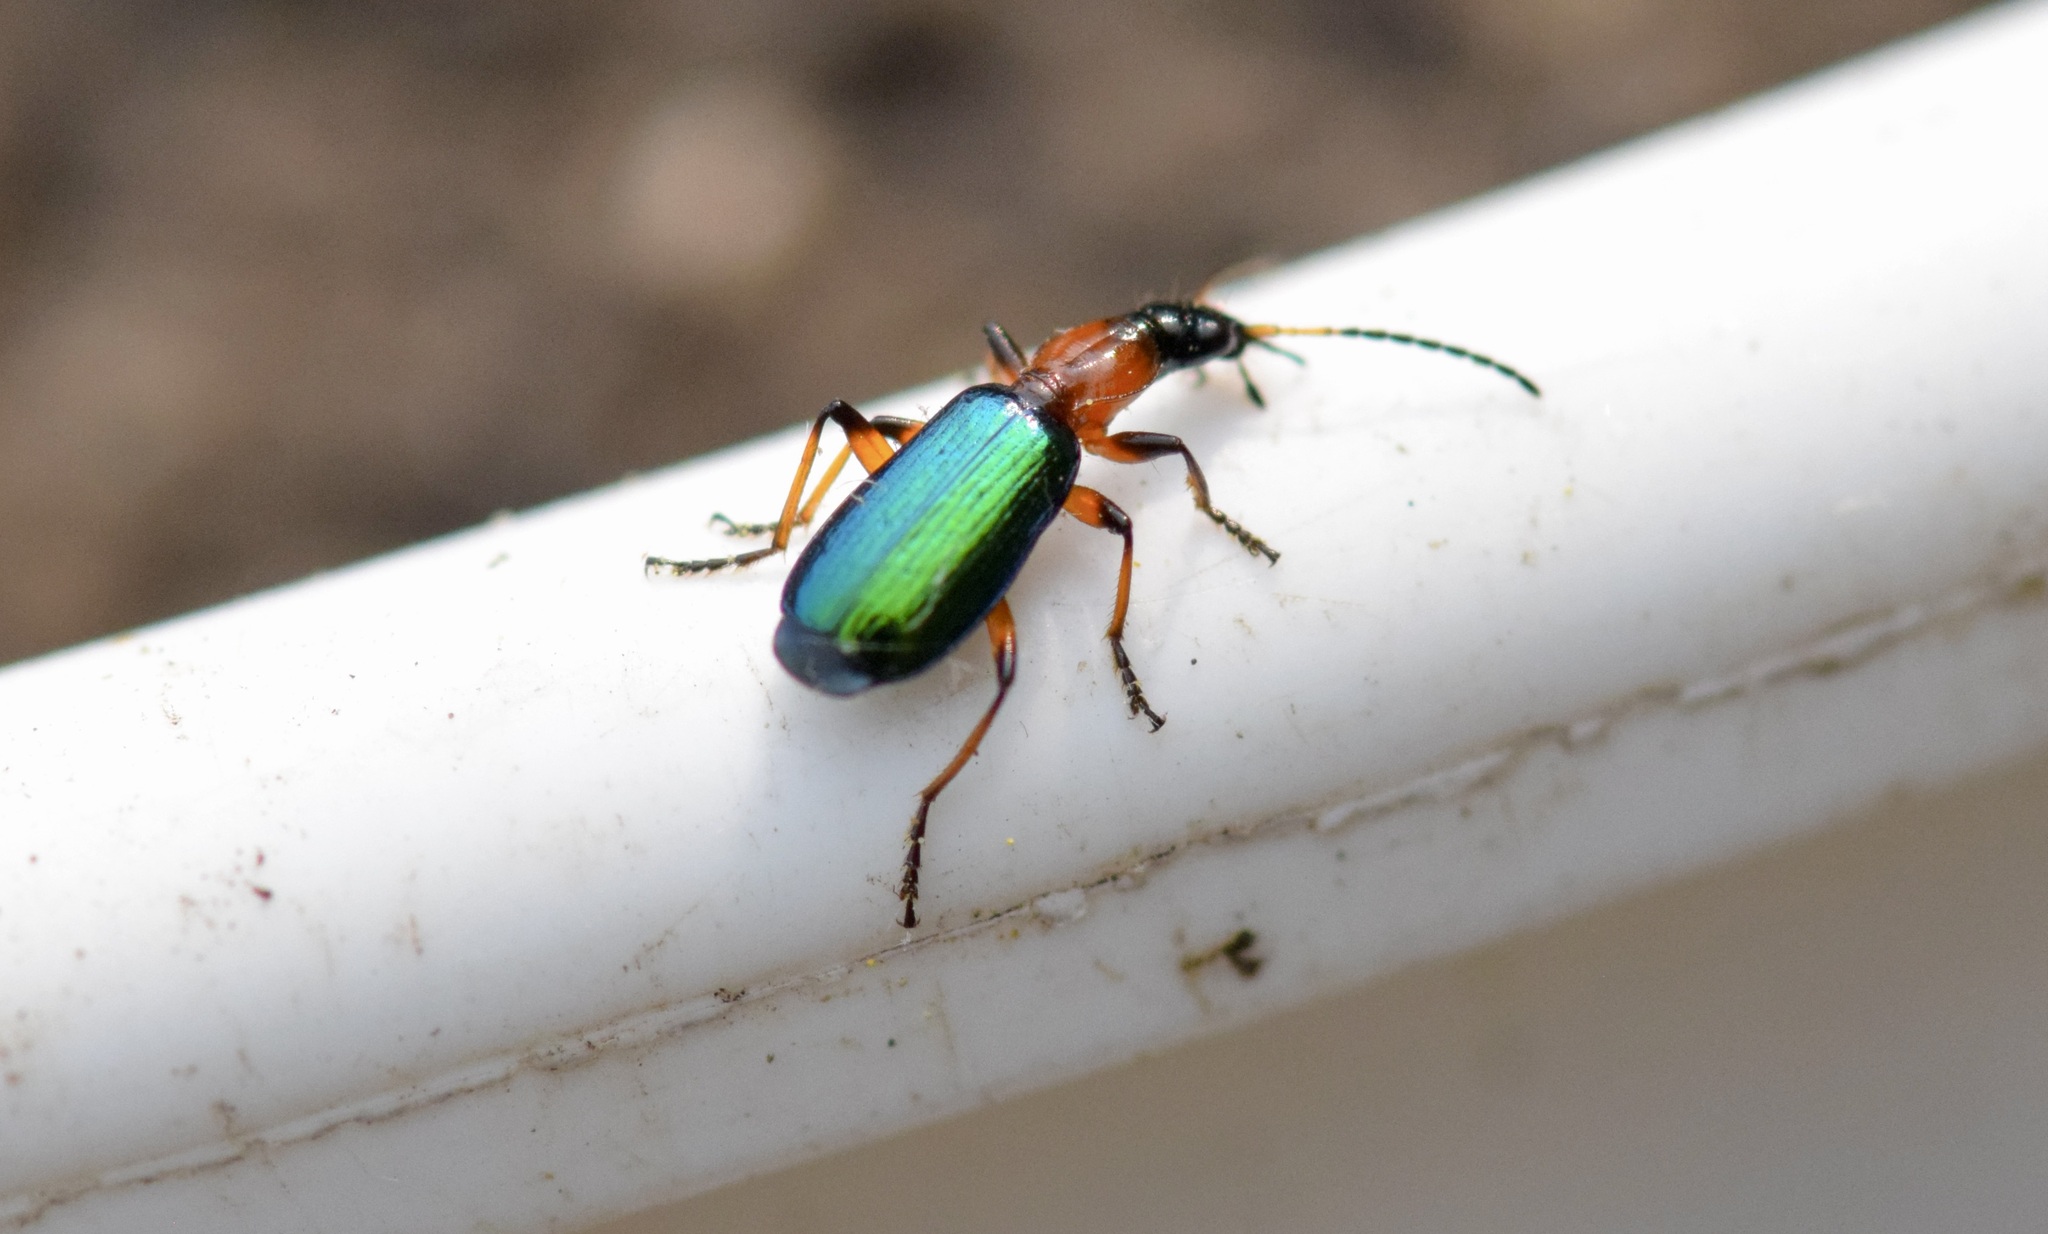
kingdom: Animalia
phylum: Arthropoda
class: Insecta
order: Coleoptera
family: Carabidae
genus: Calleida
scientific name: Calleida punctata
